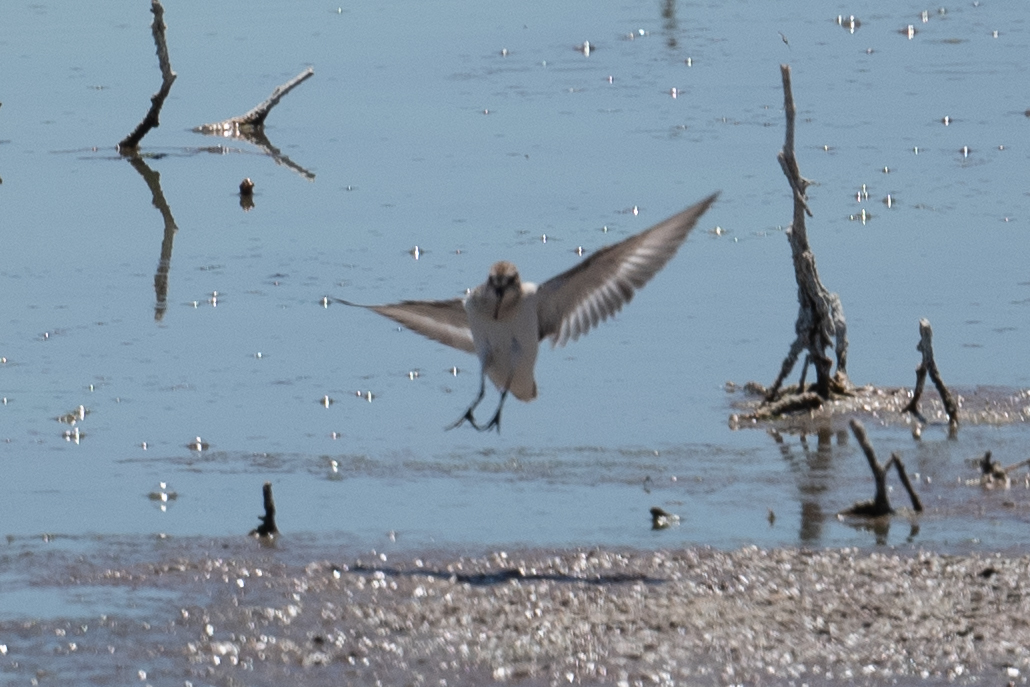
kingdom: Animalia
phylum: Chordata
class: Aves
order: Charadriiformes
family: Scolopacidae
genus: Calidris
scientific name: Calidris mauri
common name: Western sandpiper
